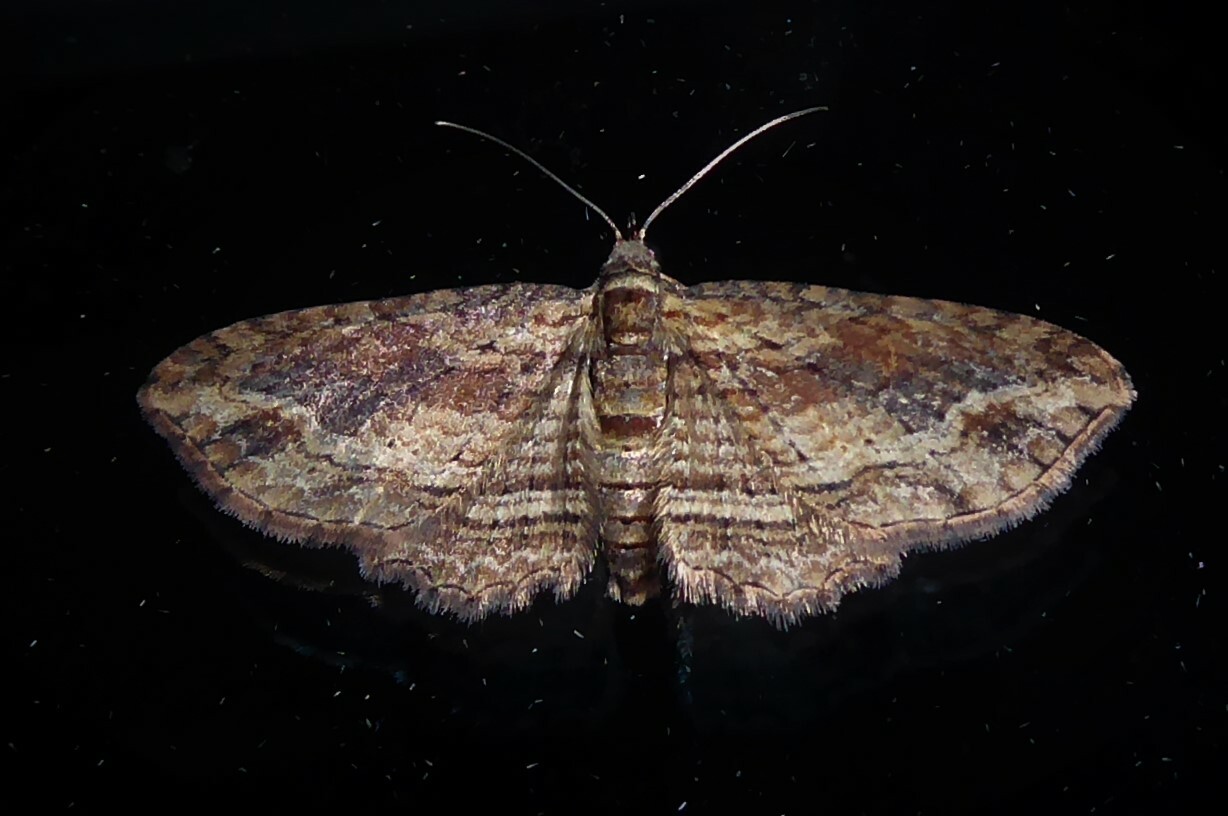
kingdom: Animalia
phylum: Arthropoda
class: Insecta
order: Lepidoptera
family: Geometridae
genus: Chloroclystis
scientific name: Chloroclystis filata
